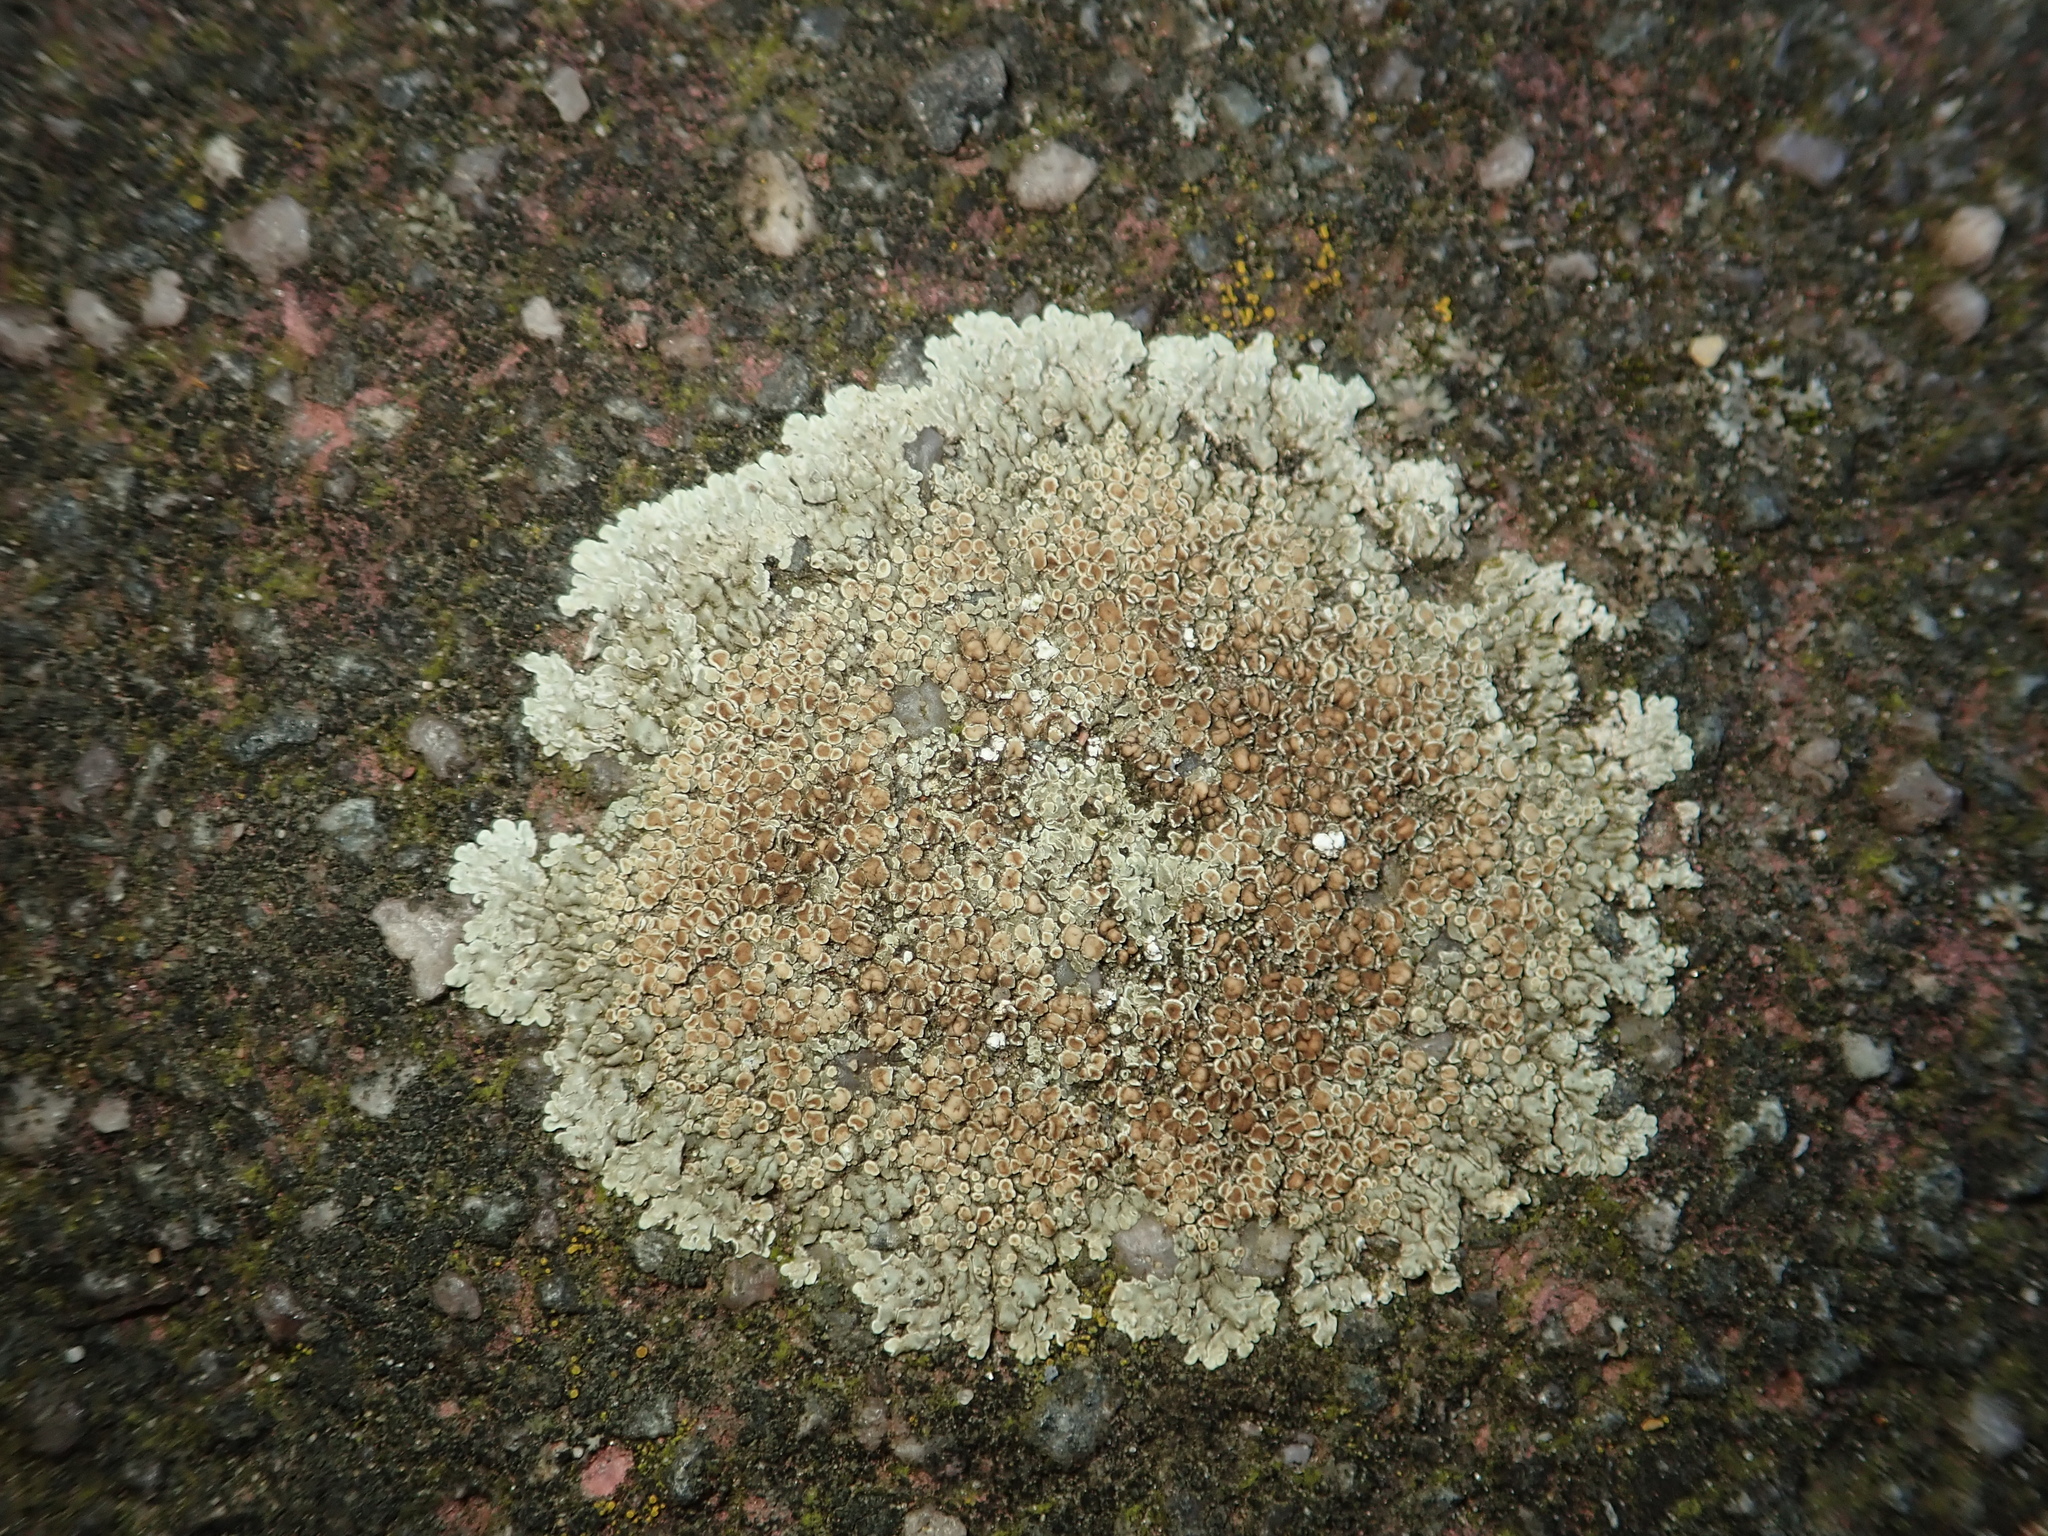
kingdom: Fungi
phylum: Ascomycota
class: Lecanoromycetes
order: Lecanorales
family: Lecanoraceae
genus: Protoparmeliopsis
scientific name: Protoparmeliopsis muralis
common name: Stonewall rim lichen
